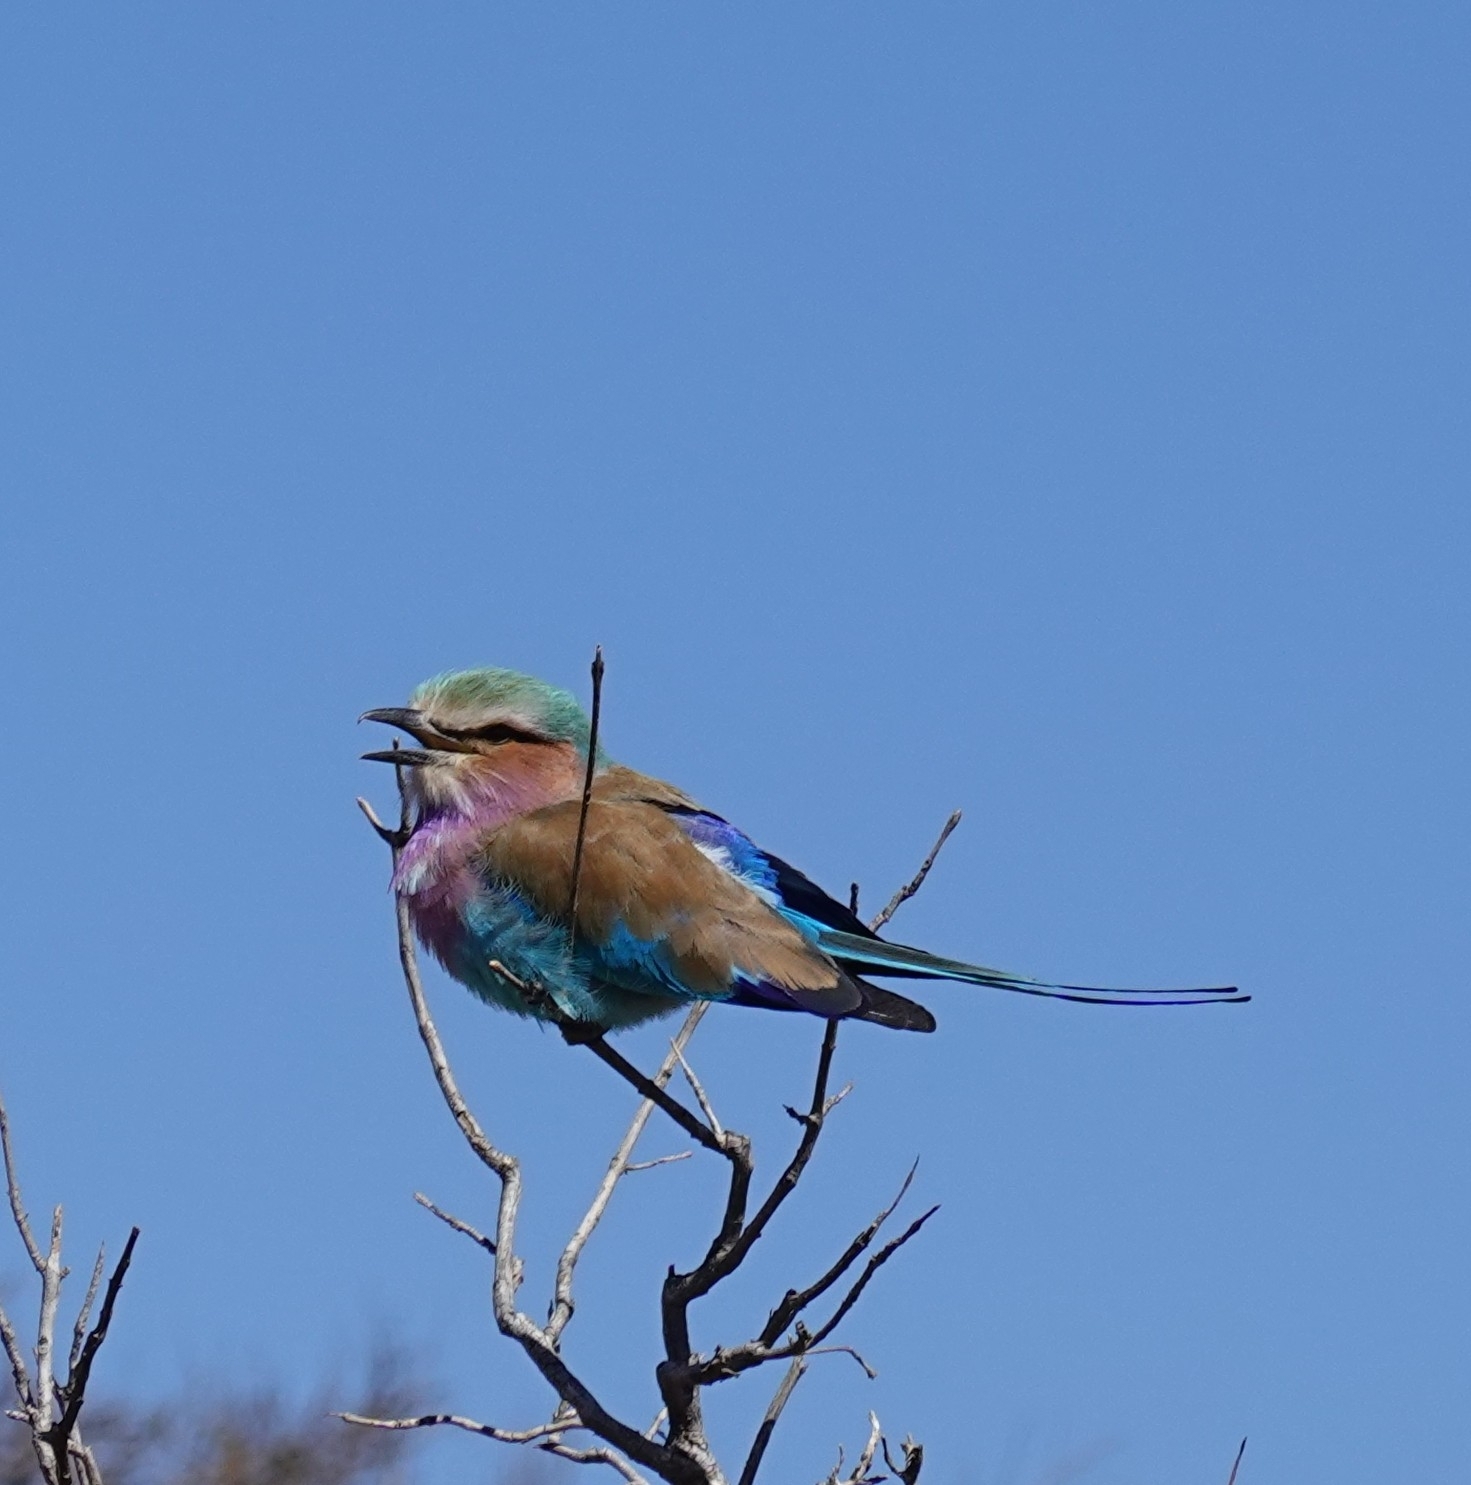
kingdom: Animalia
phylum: Chordata
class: Aves
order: Coraciiformes
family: Coraciidae
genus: Coracias
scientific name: Coracias caudatus
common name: Lilac-breasted roller
